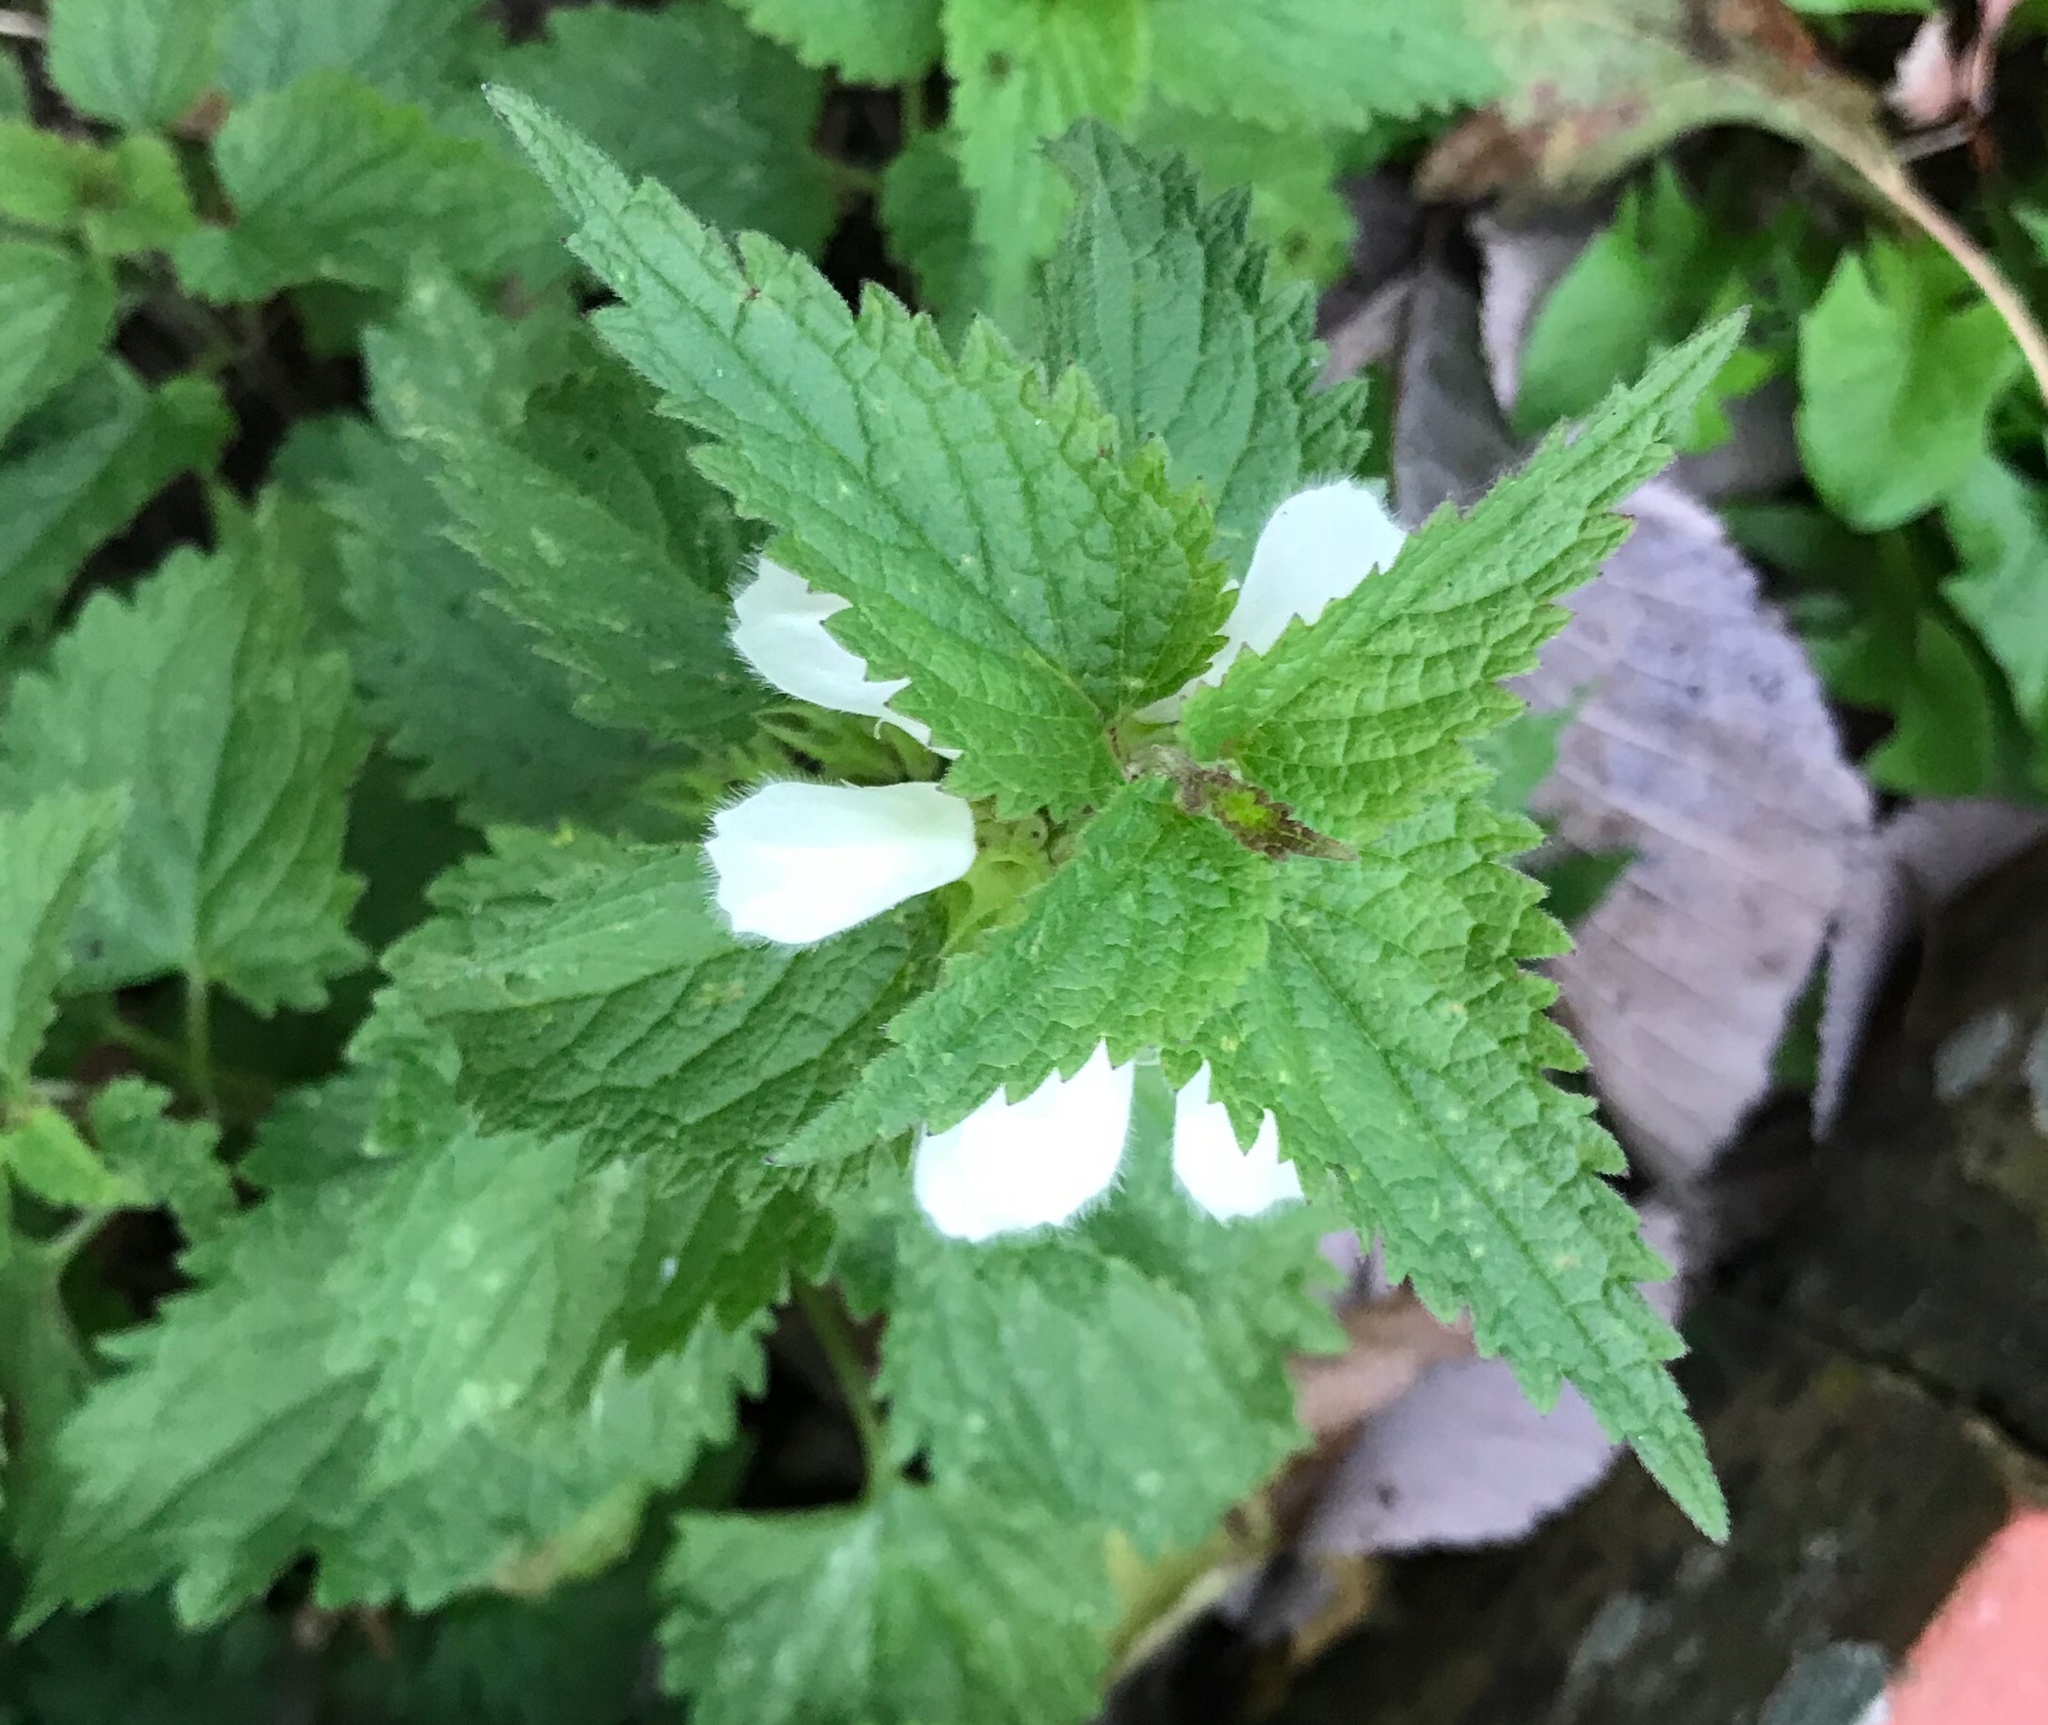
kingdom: Plantae
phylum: Tracheophyta
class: Magnoliopsida
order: Lamiales
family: Lamiaceae
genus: Lamium
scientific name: Lamium album
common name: White dead-nettle
